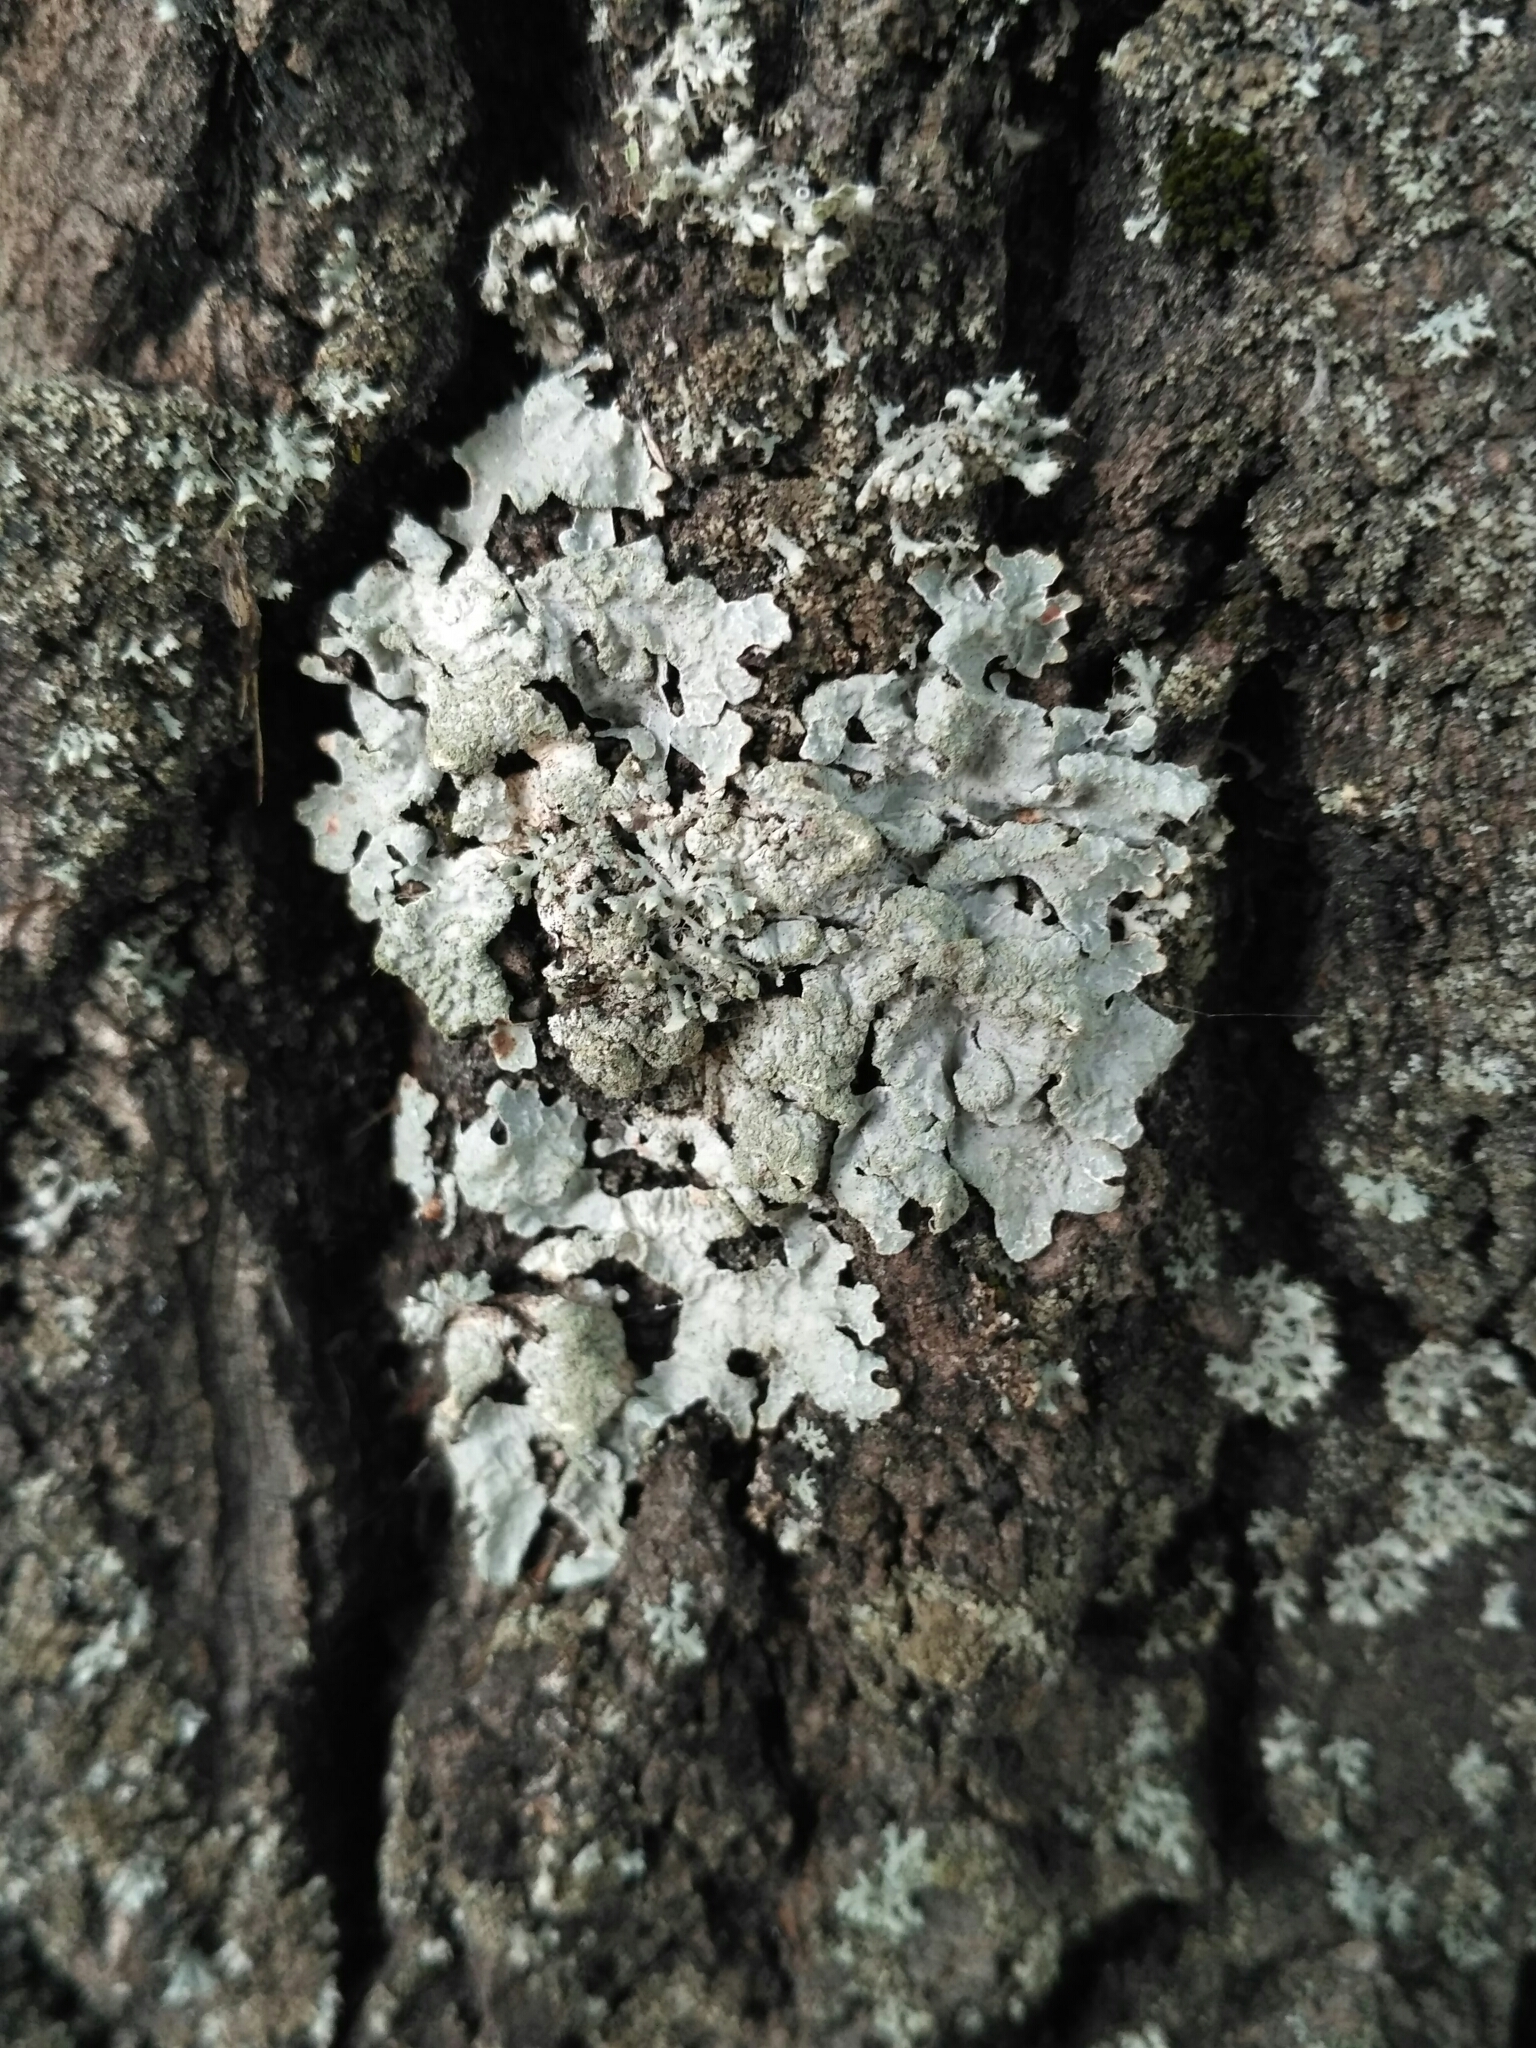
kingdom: Fungi
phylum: Ascomycota
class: Lecanoromycetes
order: Lecanorales
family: Parmeliaceae
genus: Parmelia
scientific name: Parmelia sulcata
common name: Netted shield lichen
